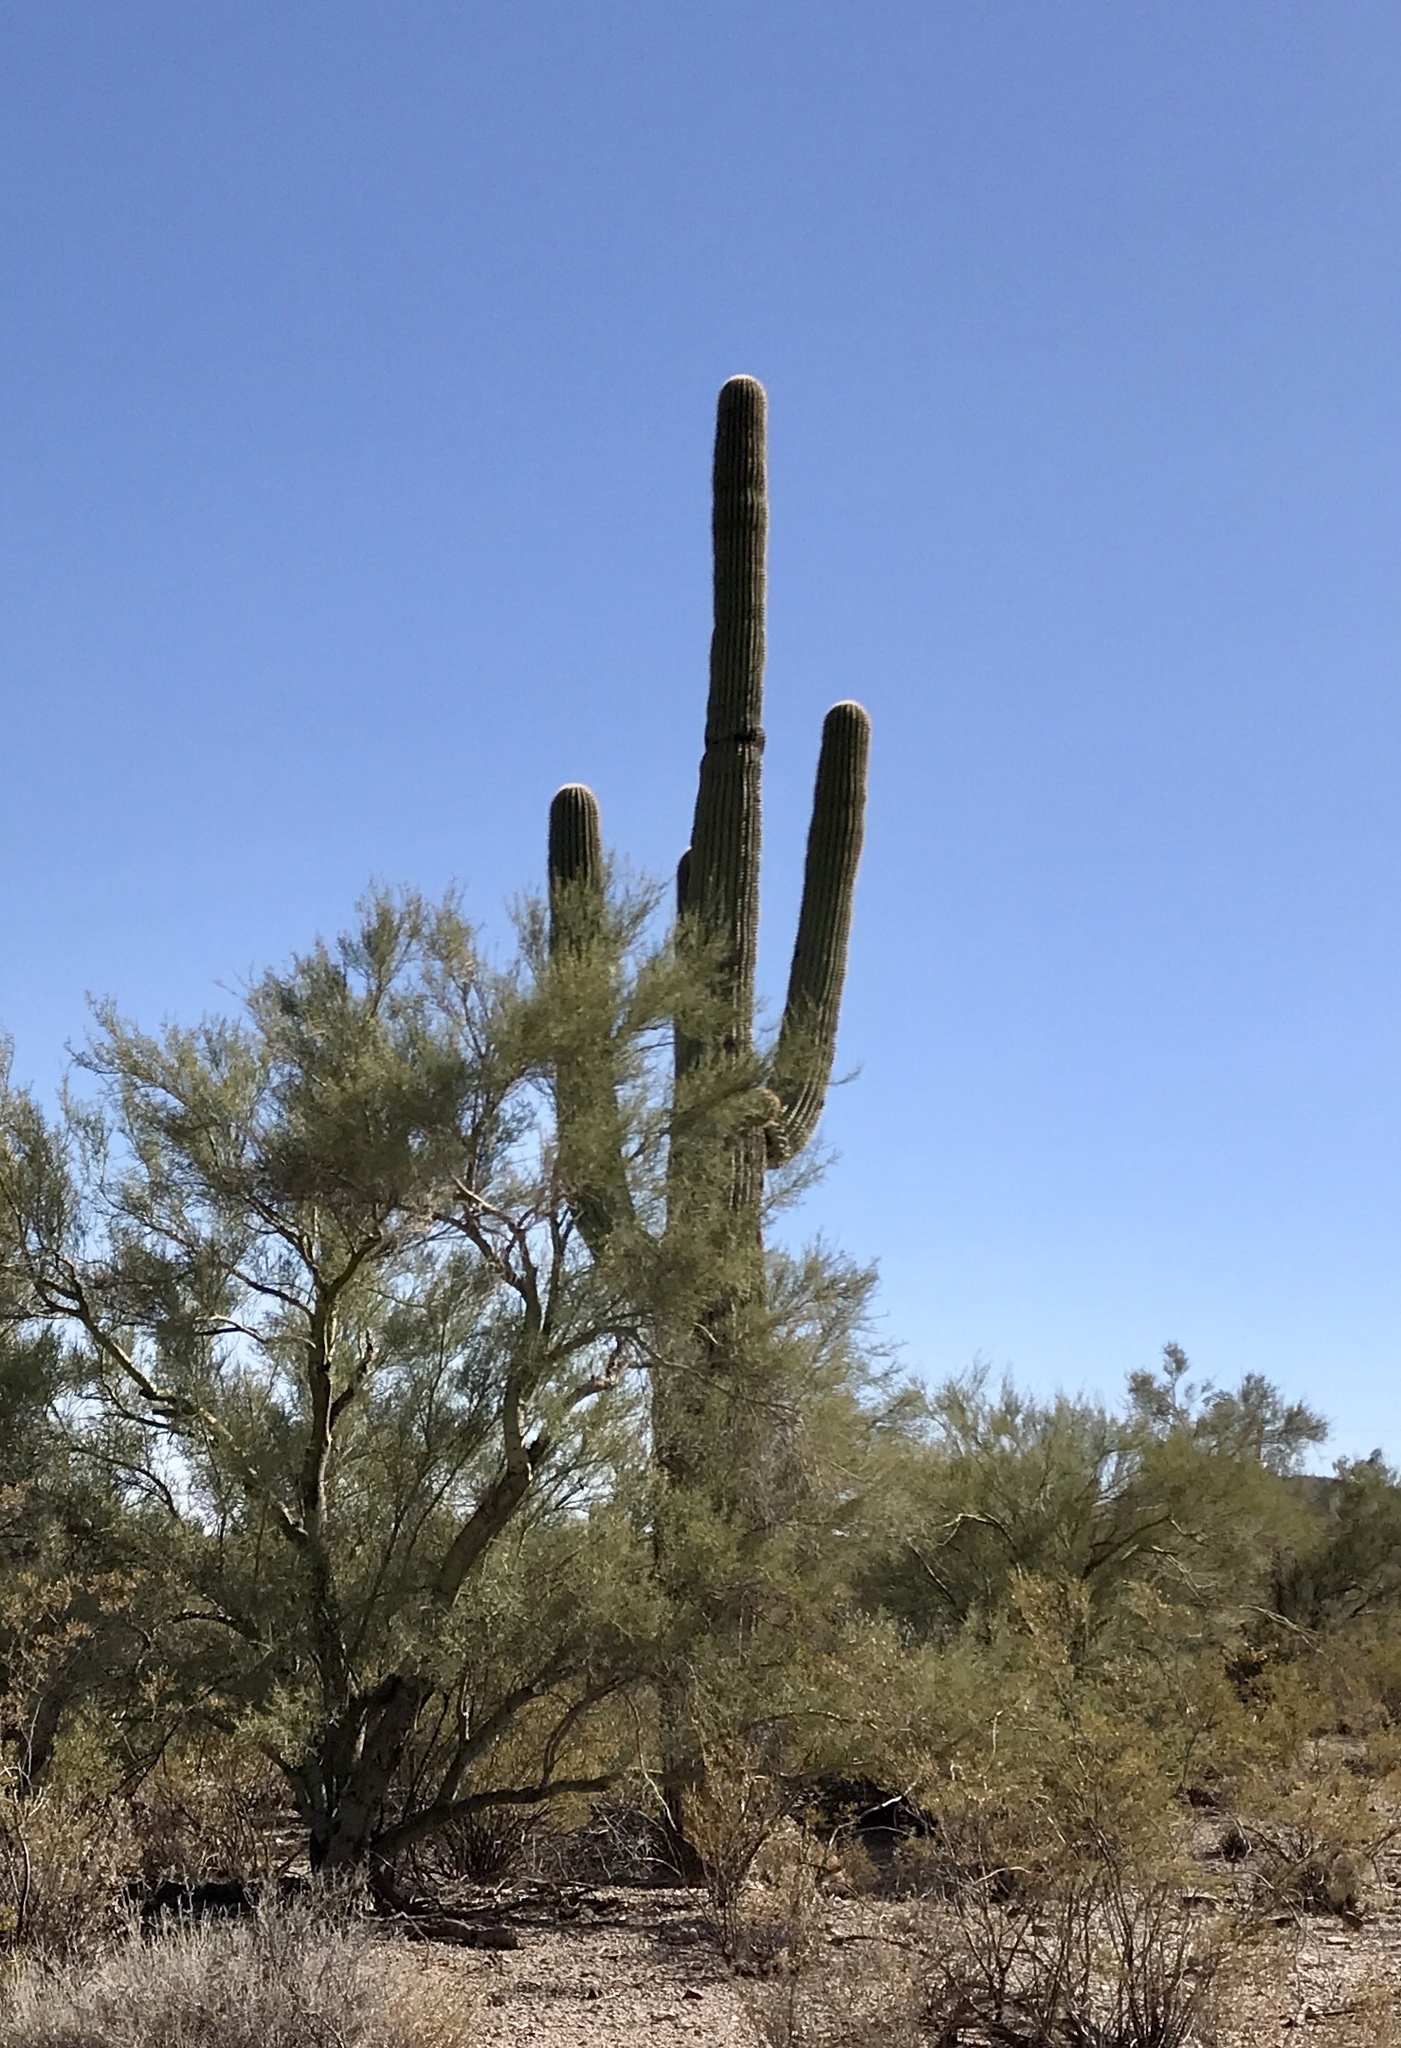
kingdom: Plantae
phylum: Tracheophyta
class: Magnoliopsida
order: Caryophyllales
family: Cactaceae
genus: Carnegiea
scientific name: Carnegiea gigantea
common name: Saguaro
